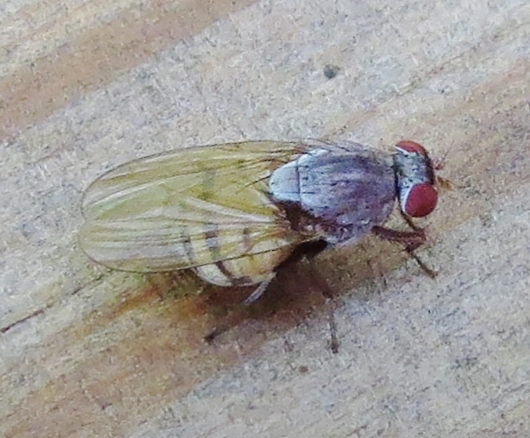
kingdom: Animalia
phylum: Arthropoda
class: Insecta
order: Diptera
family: Lauxaniidae
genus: Minettia
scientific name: Minettia magna
